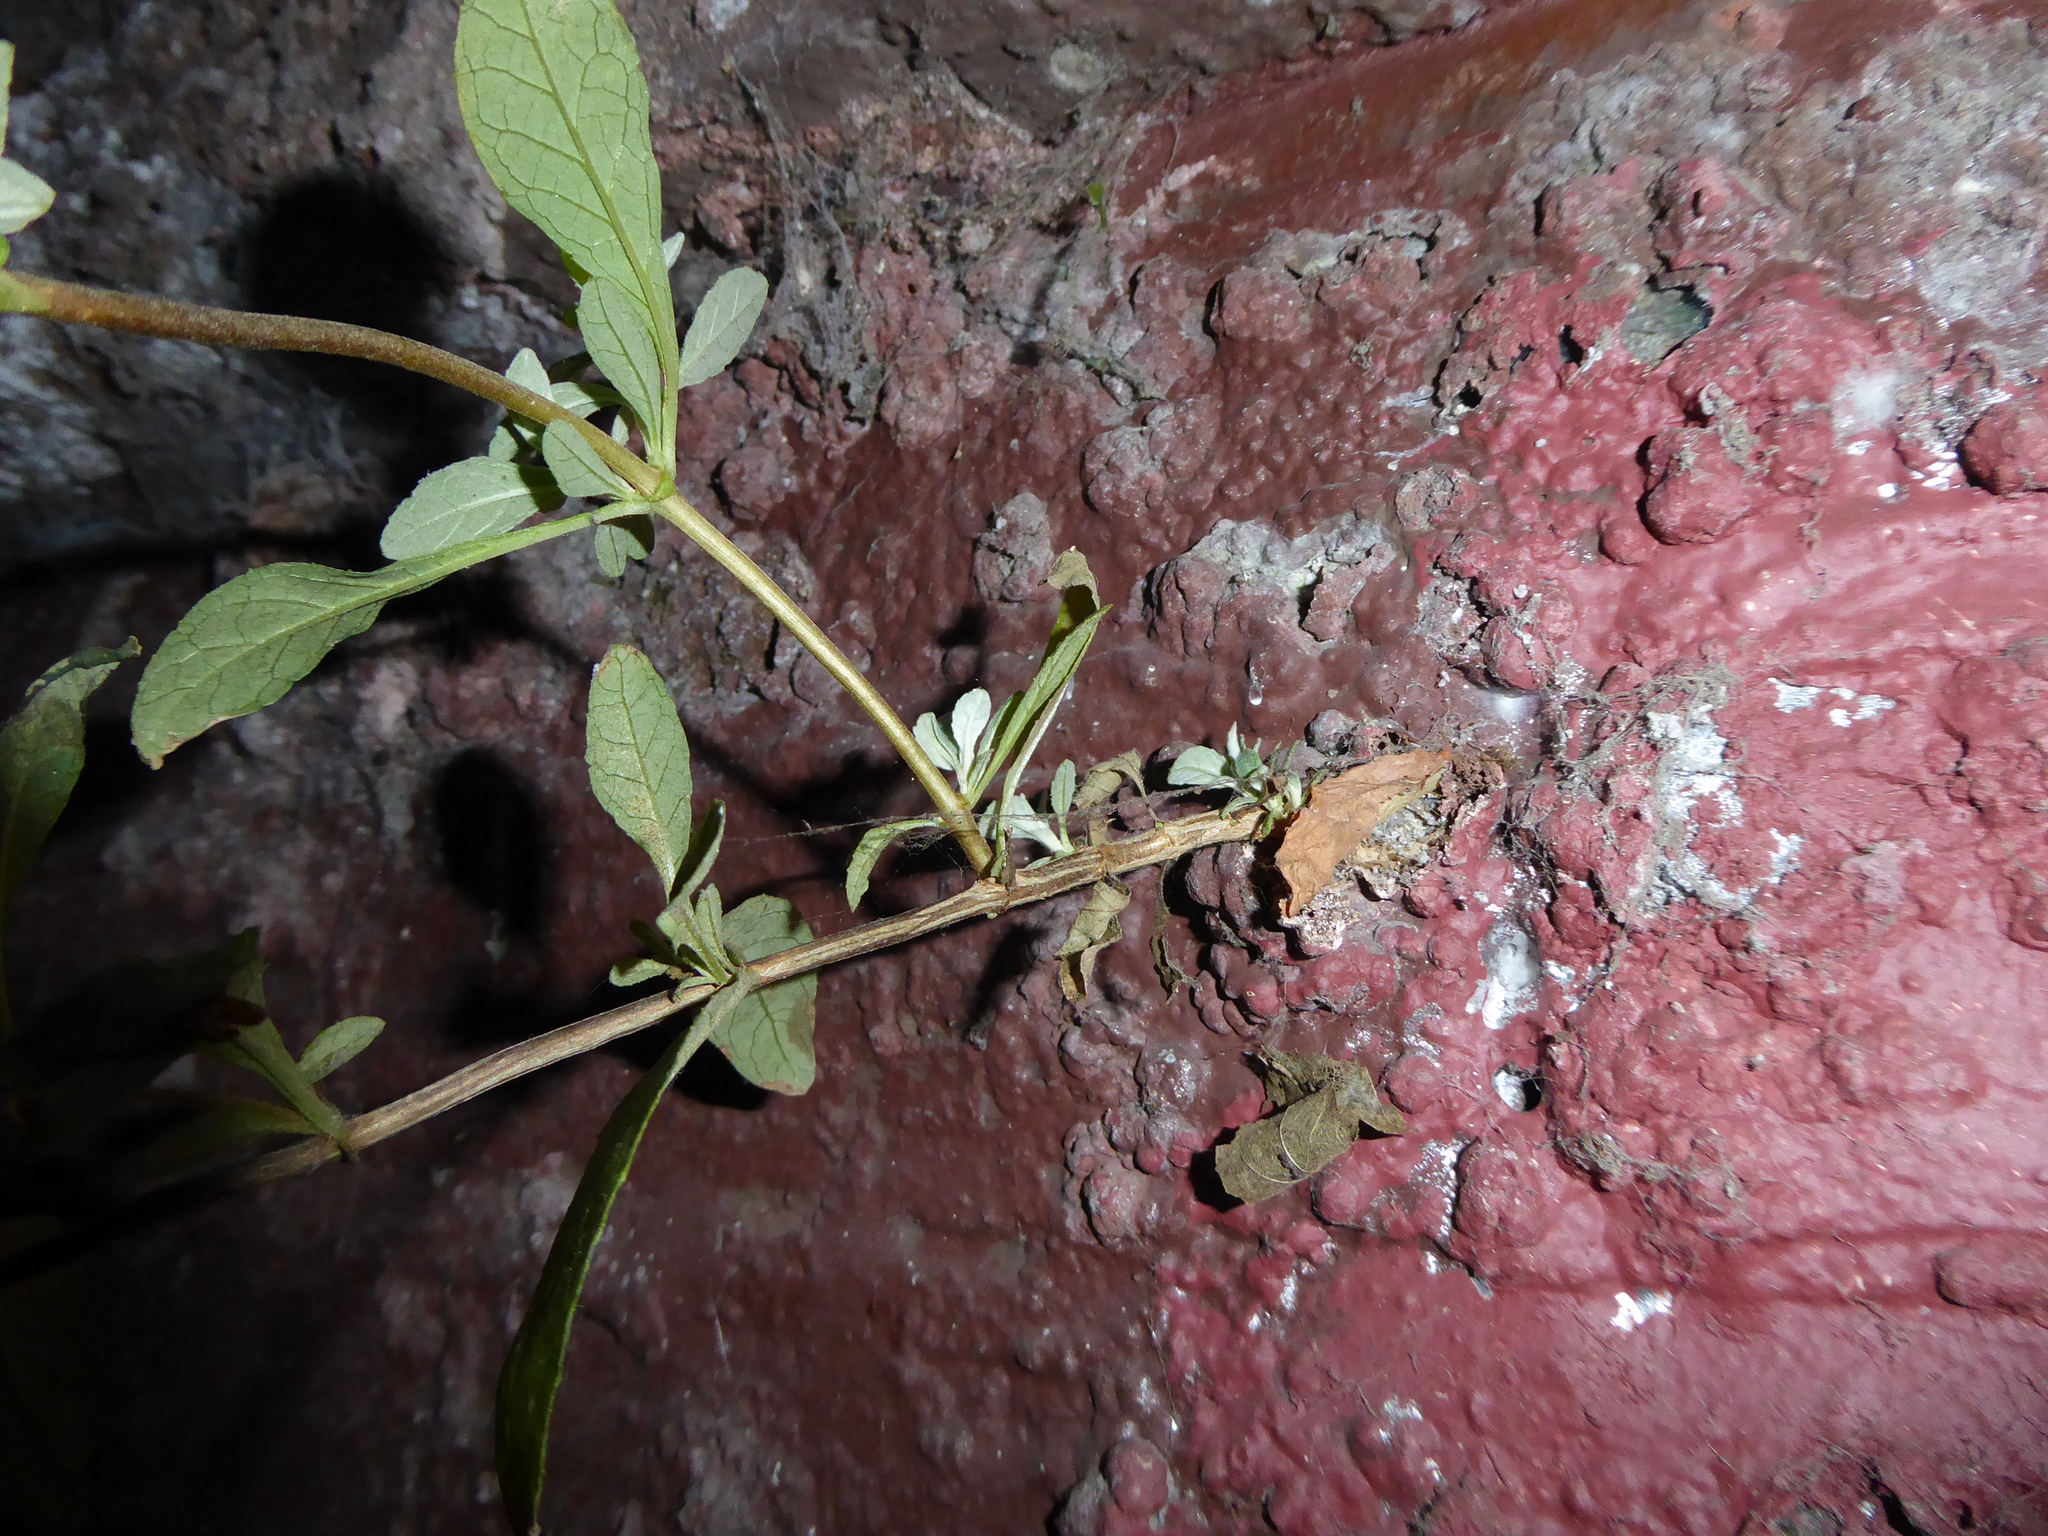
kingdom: Plantae
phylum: Tracheophyta
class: Magnoliopsida
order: Lamiales
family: Scrophulariaceae
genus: Buddleja
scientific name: Buddleja davidii
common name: Butterfly-bush
